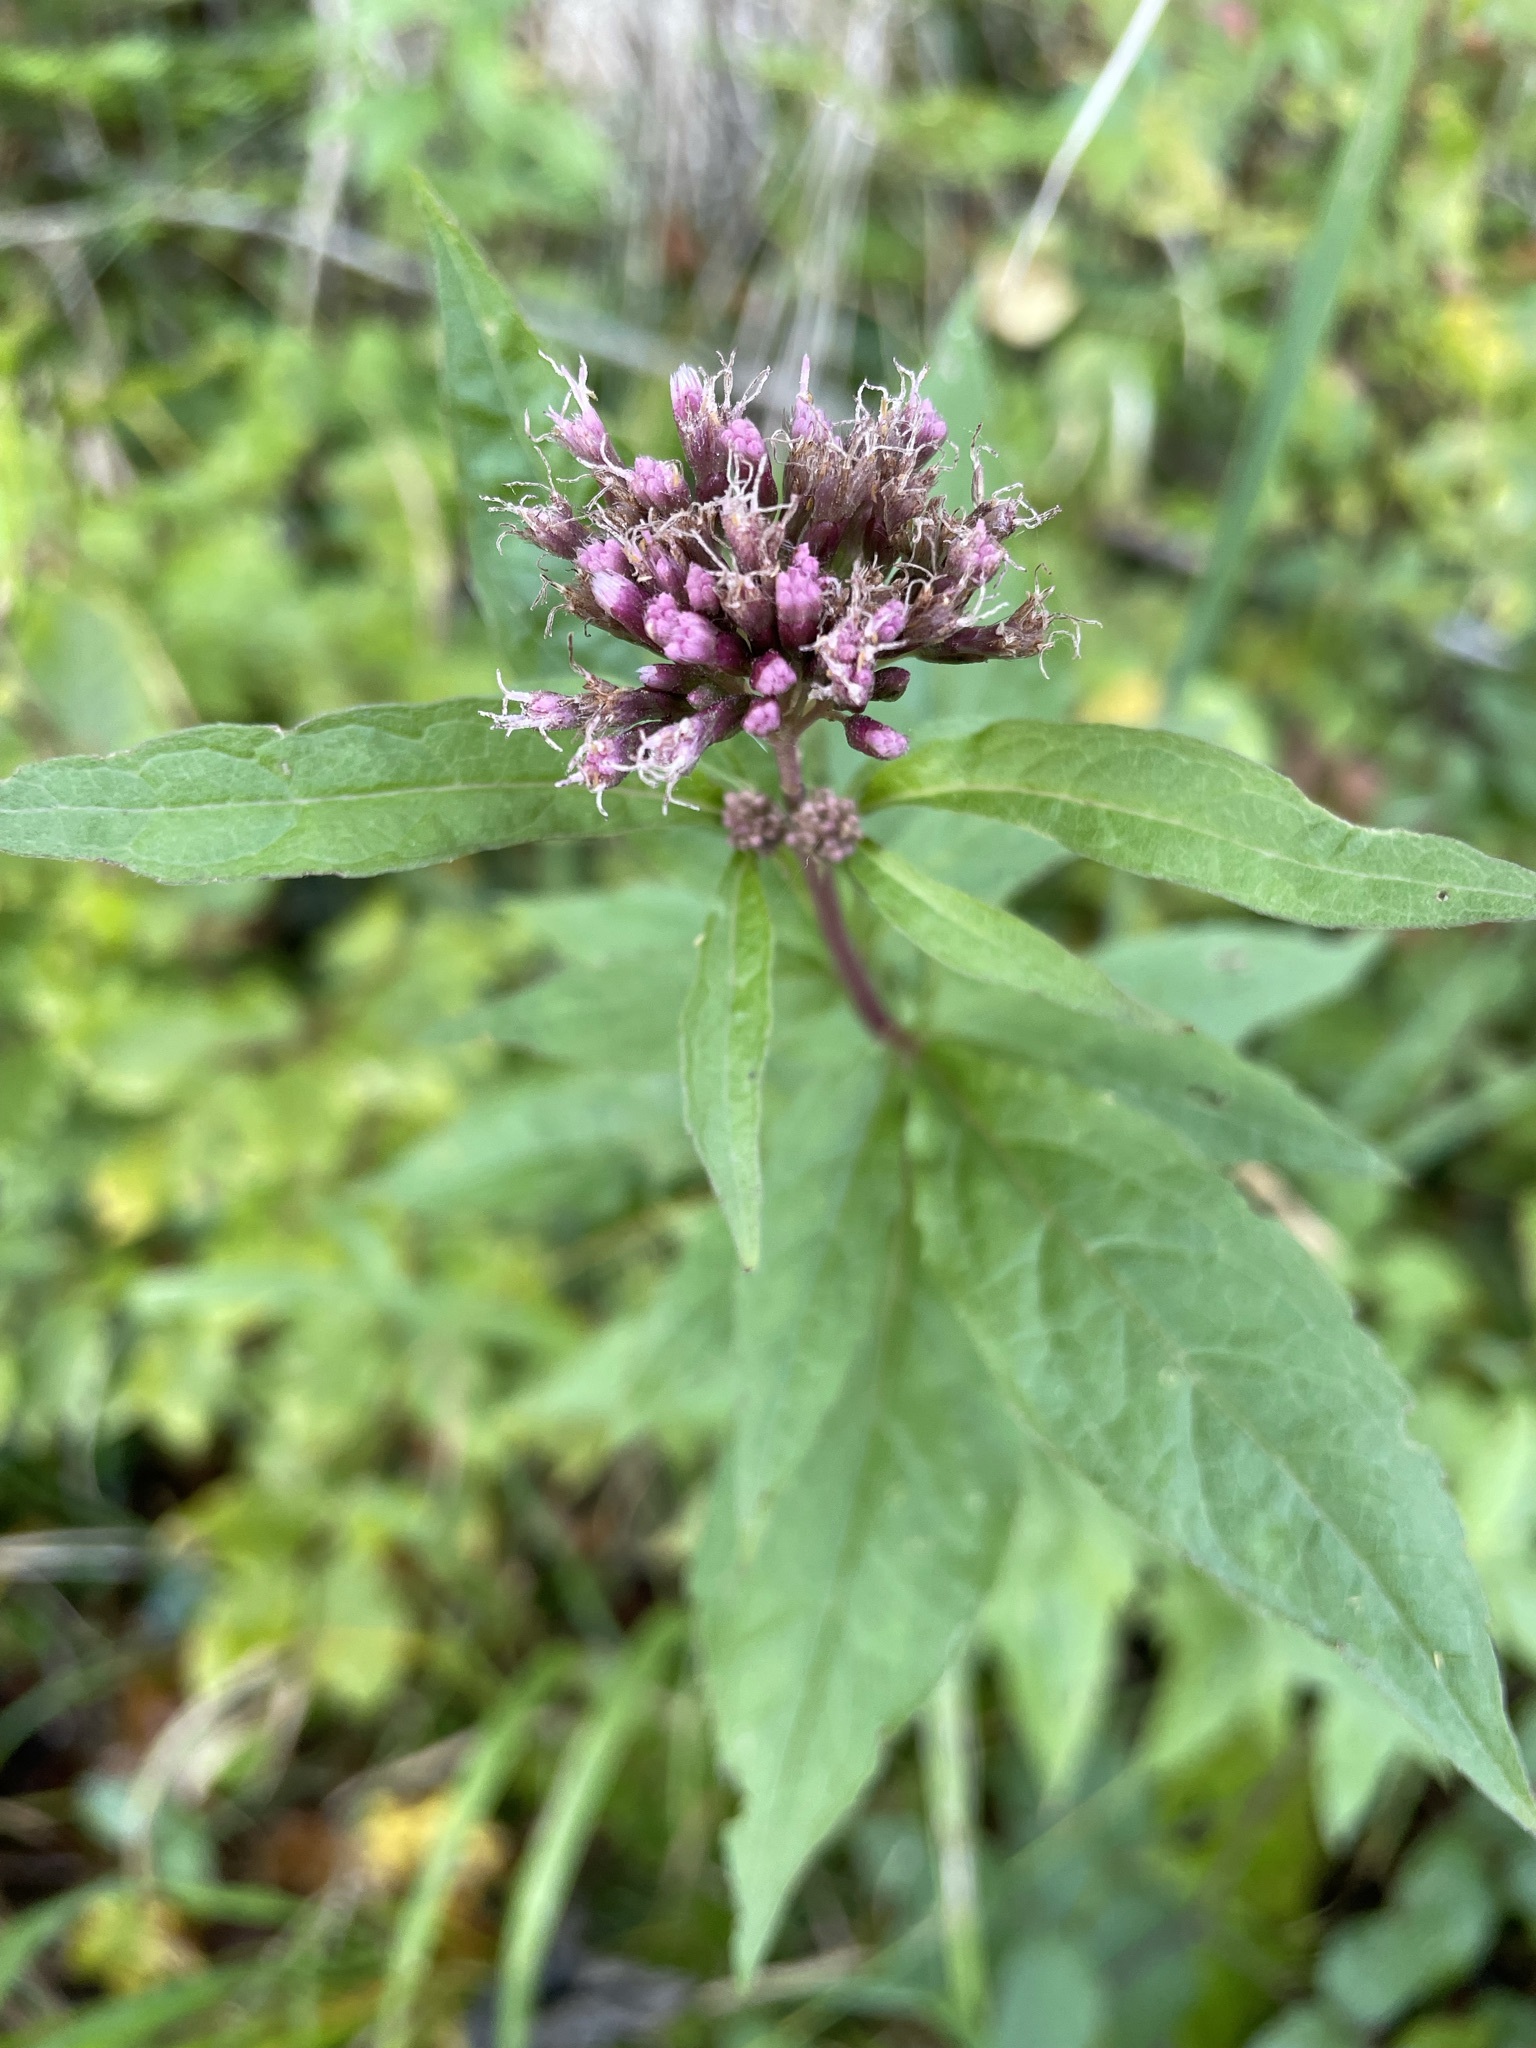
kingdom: Plantae
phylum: Tracheophyta
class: Magnoliopsida
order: Asterales
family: Asteraceae
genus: Eupatorium
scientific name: Eupatorium cannabinum
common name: Hemp-agrimony
